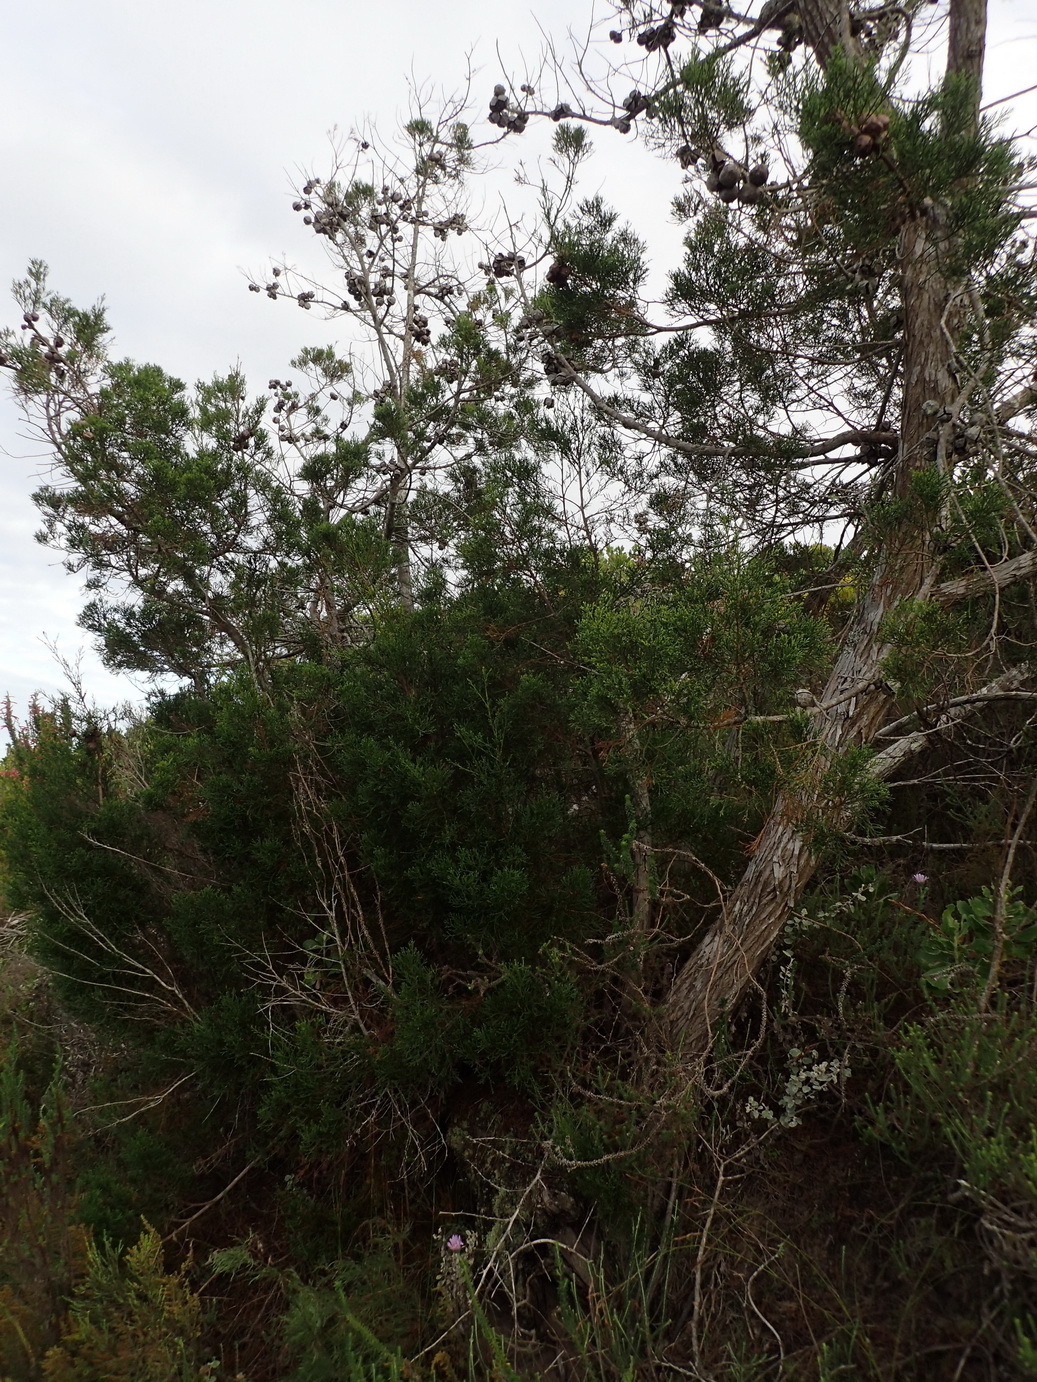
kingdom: Plantae
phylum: Tracheophyta
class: Pinopsida
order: Pinales
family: Cupressaceae
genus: Widdringtonia
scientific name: Widdringtonia nodiflora
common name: Cape cypress
